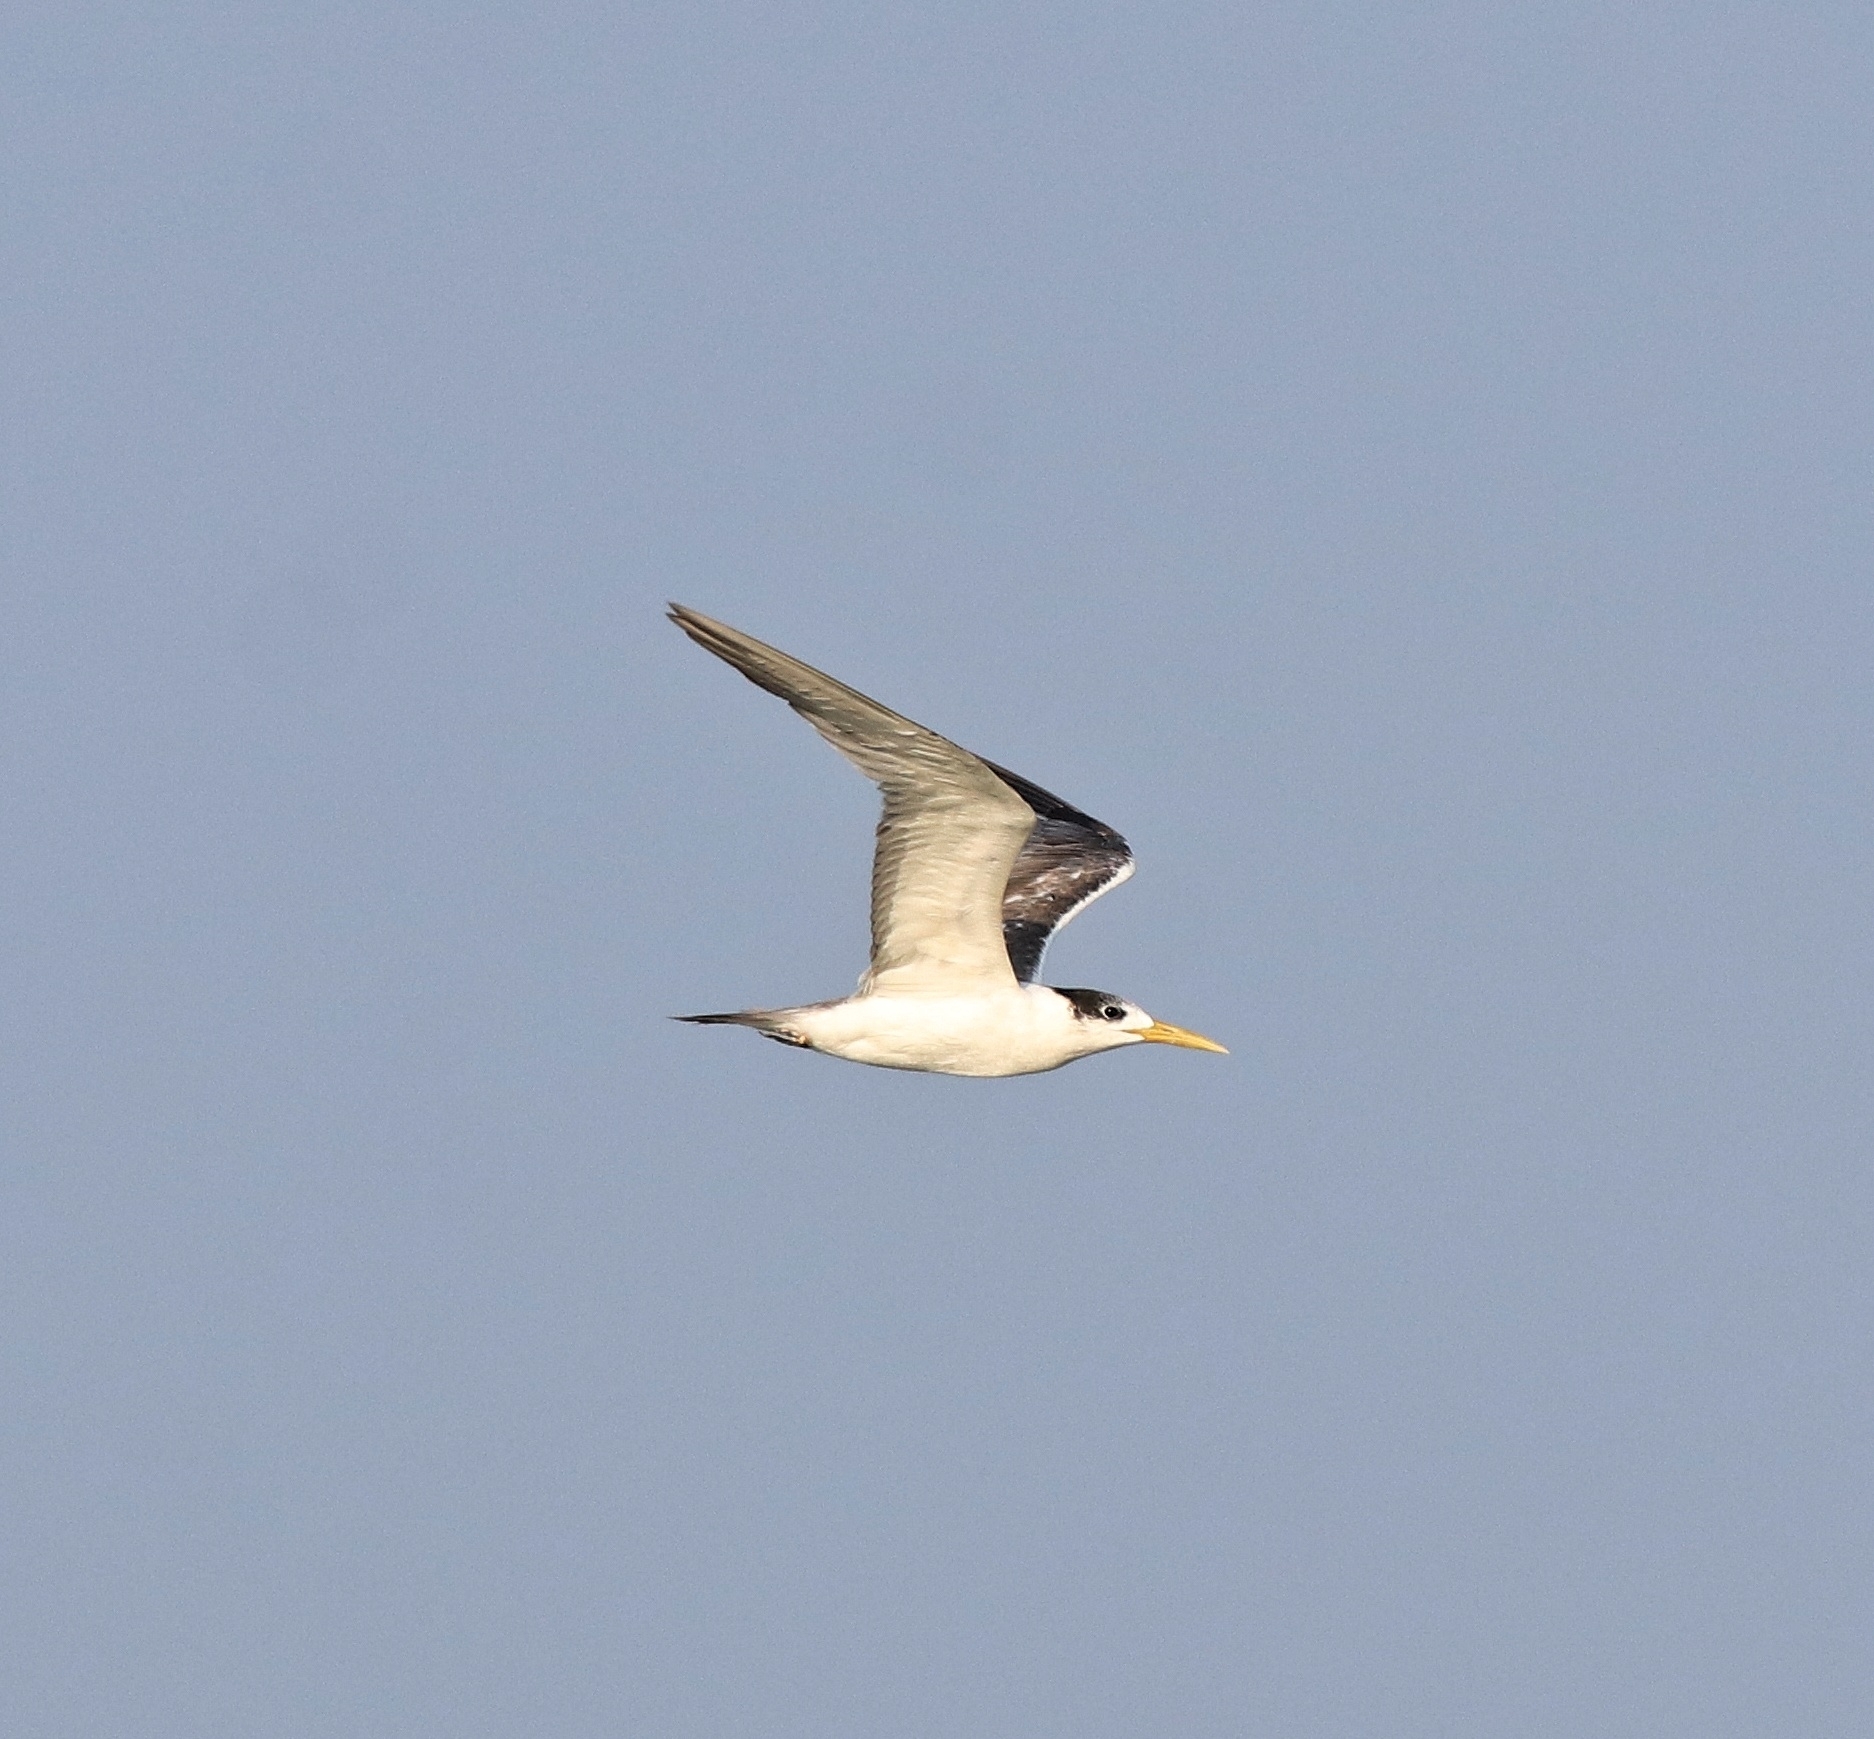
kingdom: Animalia
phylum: Chordata
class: Aves
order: Charadriiformes
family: Laridae
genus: Thalasseus
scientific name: Thalasseus bergii
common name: Greater crested tern
